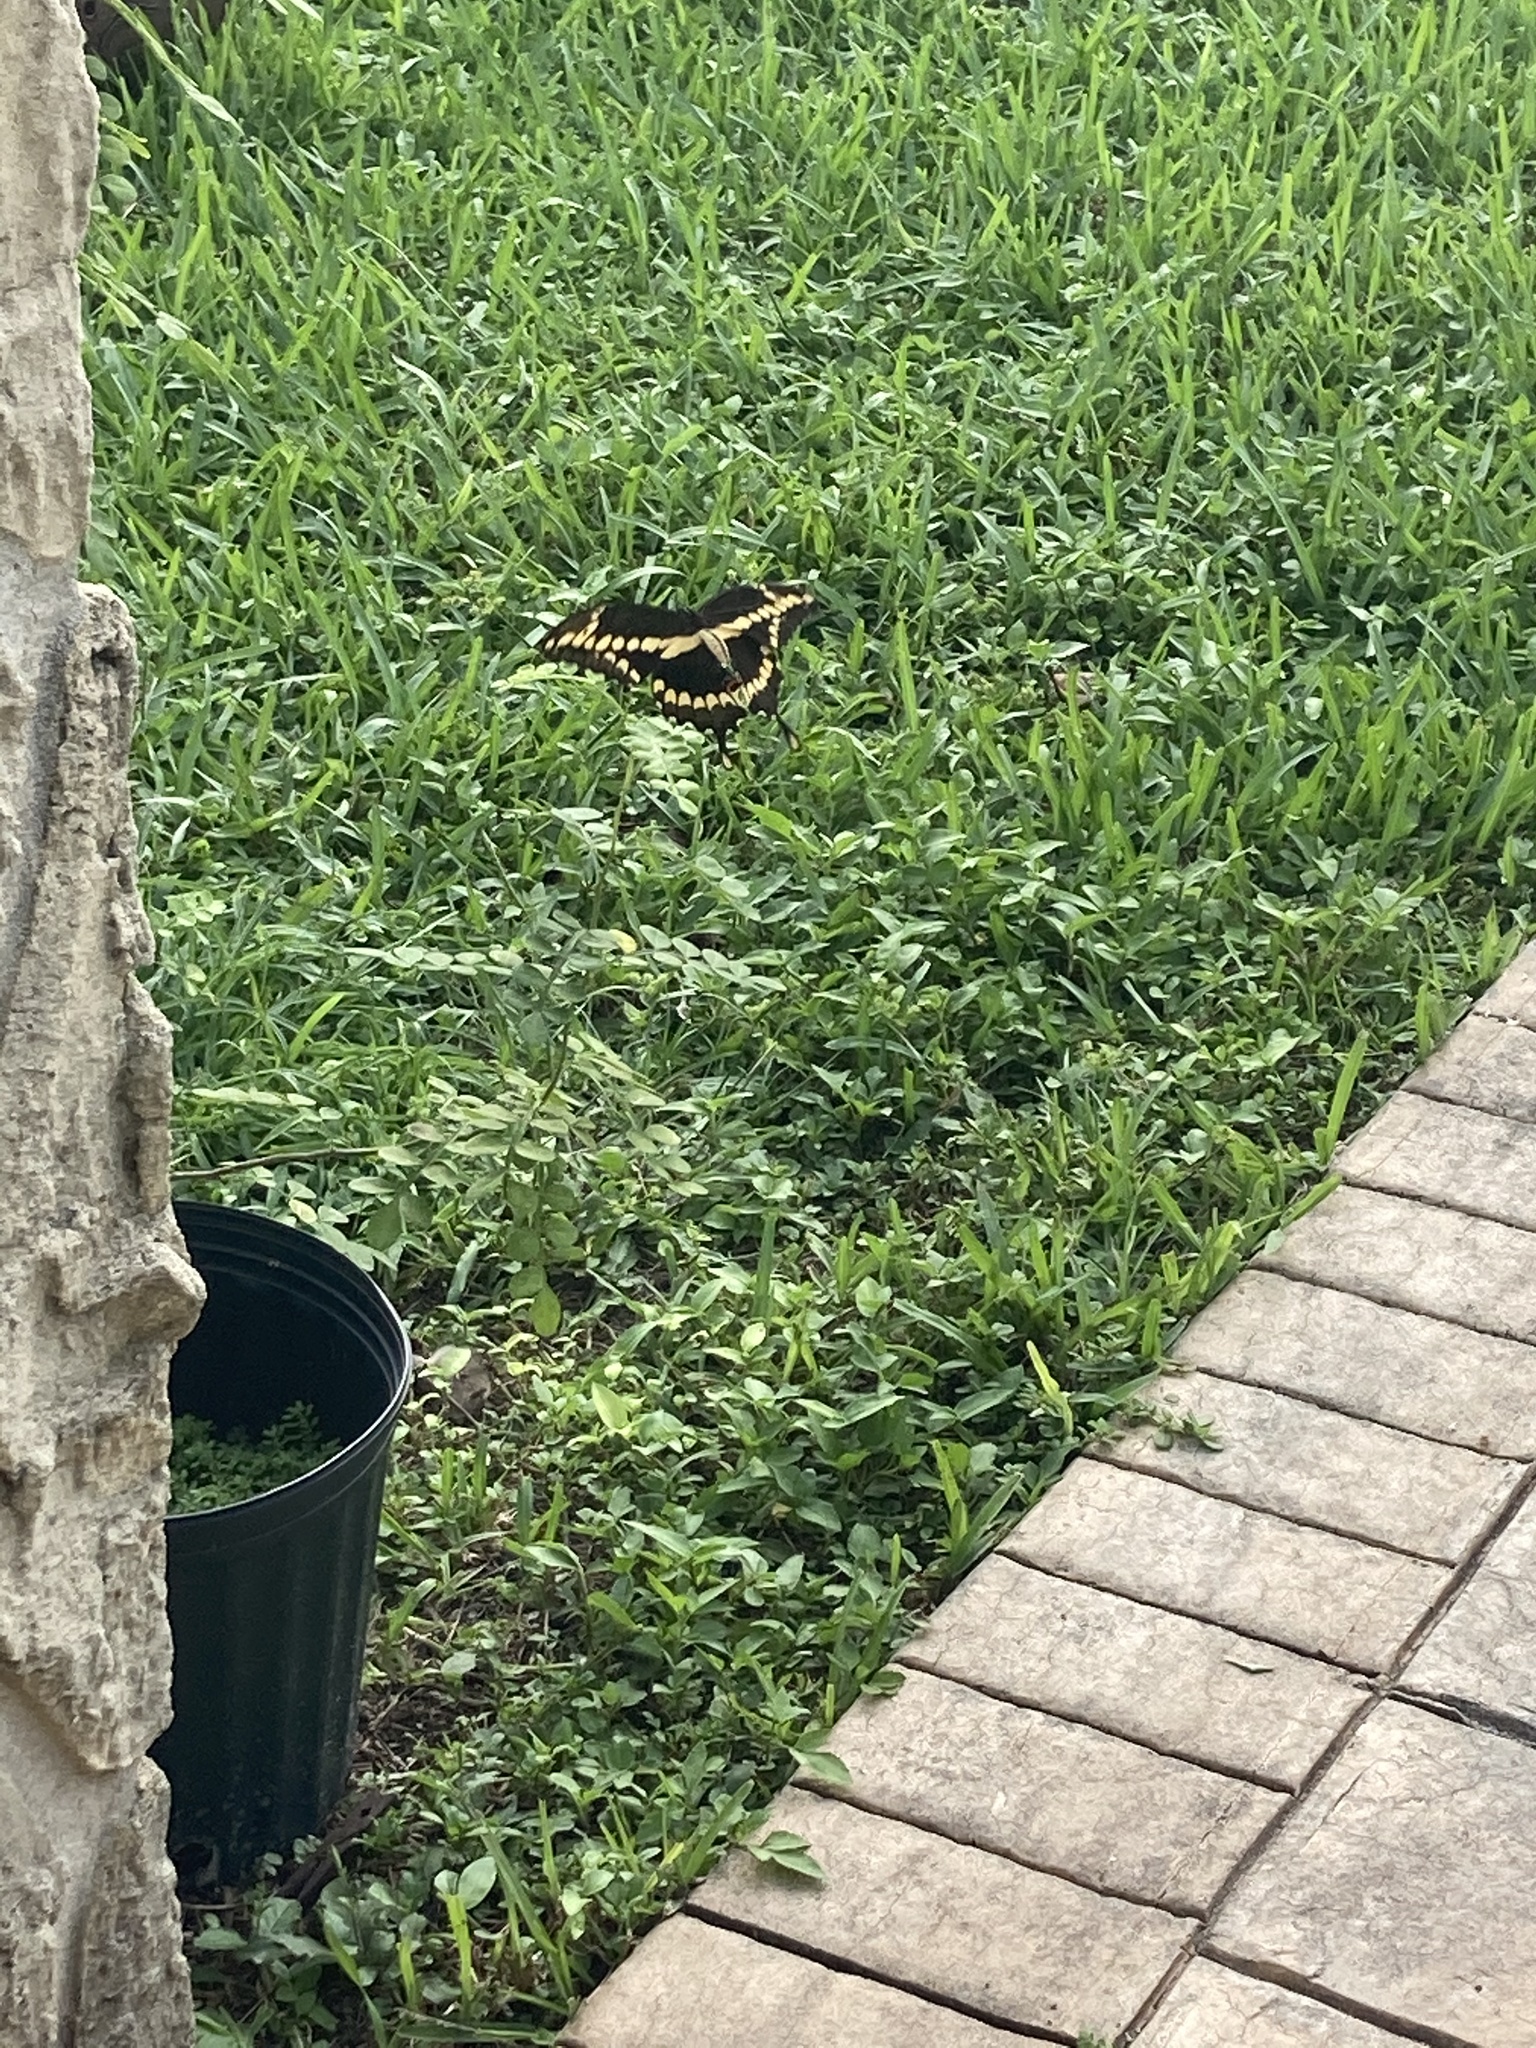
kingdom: Animalia
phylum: Arthropoda
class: Insecta
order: Lepidoptera
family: Papilionidae
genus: Papilio
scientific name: Papilio cresphontes
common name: Giant swallowtail
